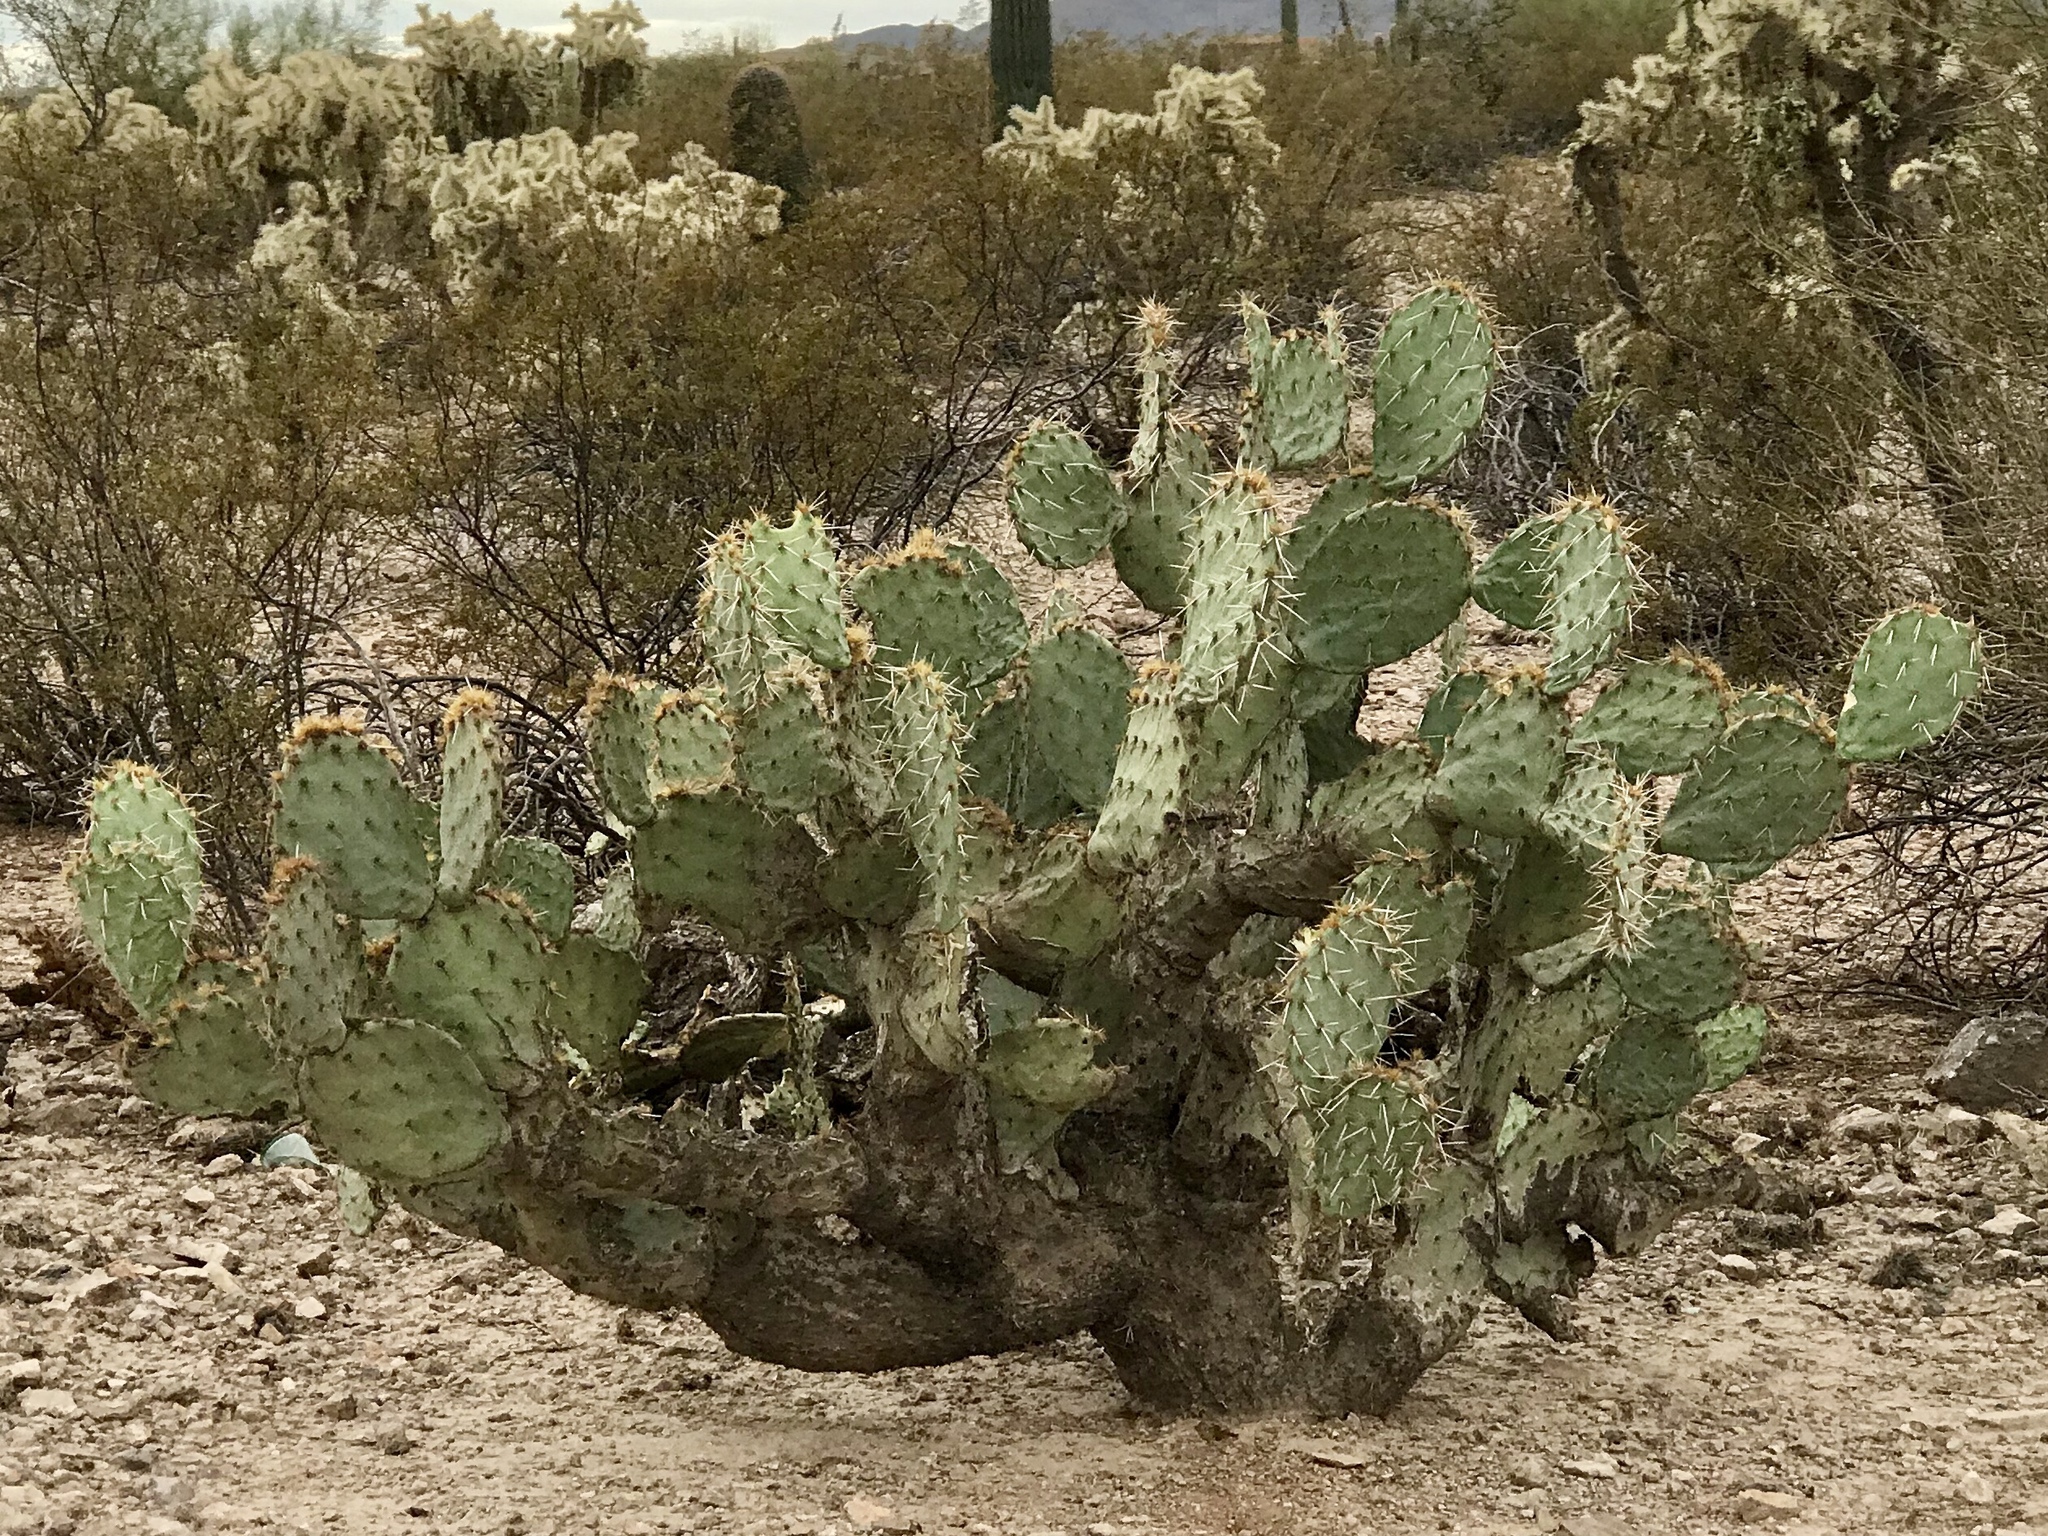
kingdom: Plantae
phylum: Tracheophyta
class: Magnoliopsida
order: Caryophyllales
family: Cactaceae
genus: Opuntia
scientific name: Opuntia engelmannii
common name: Cactus-apple
